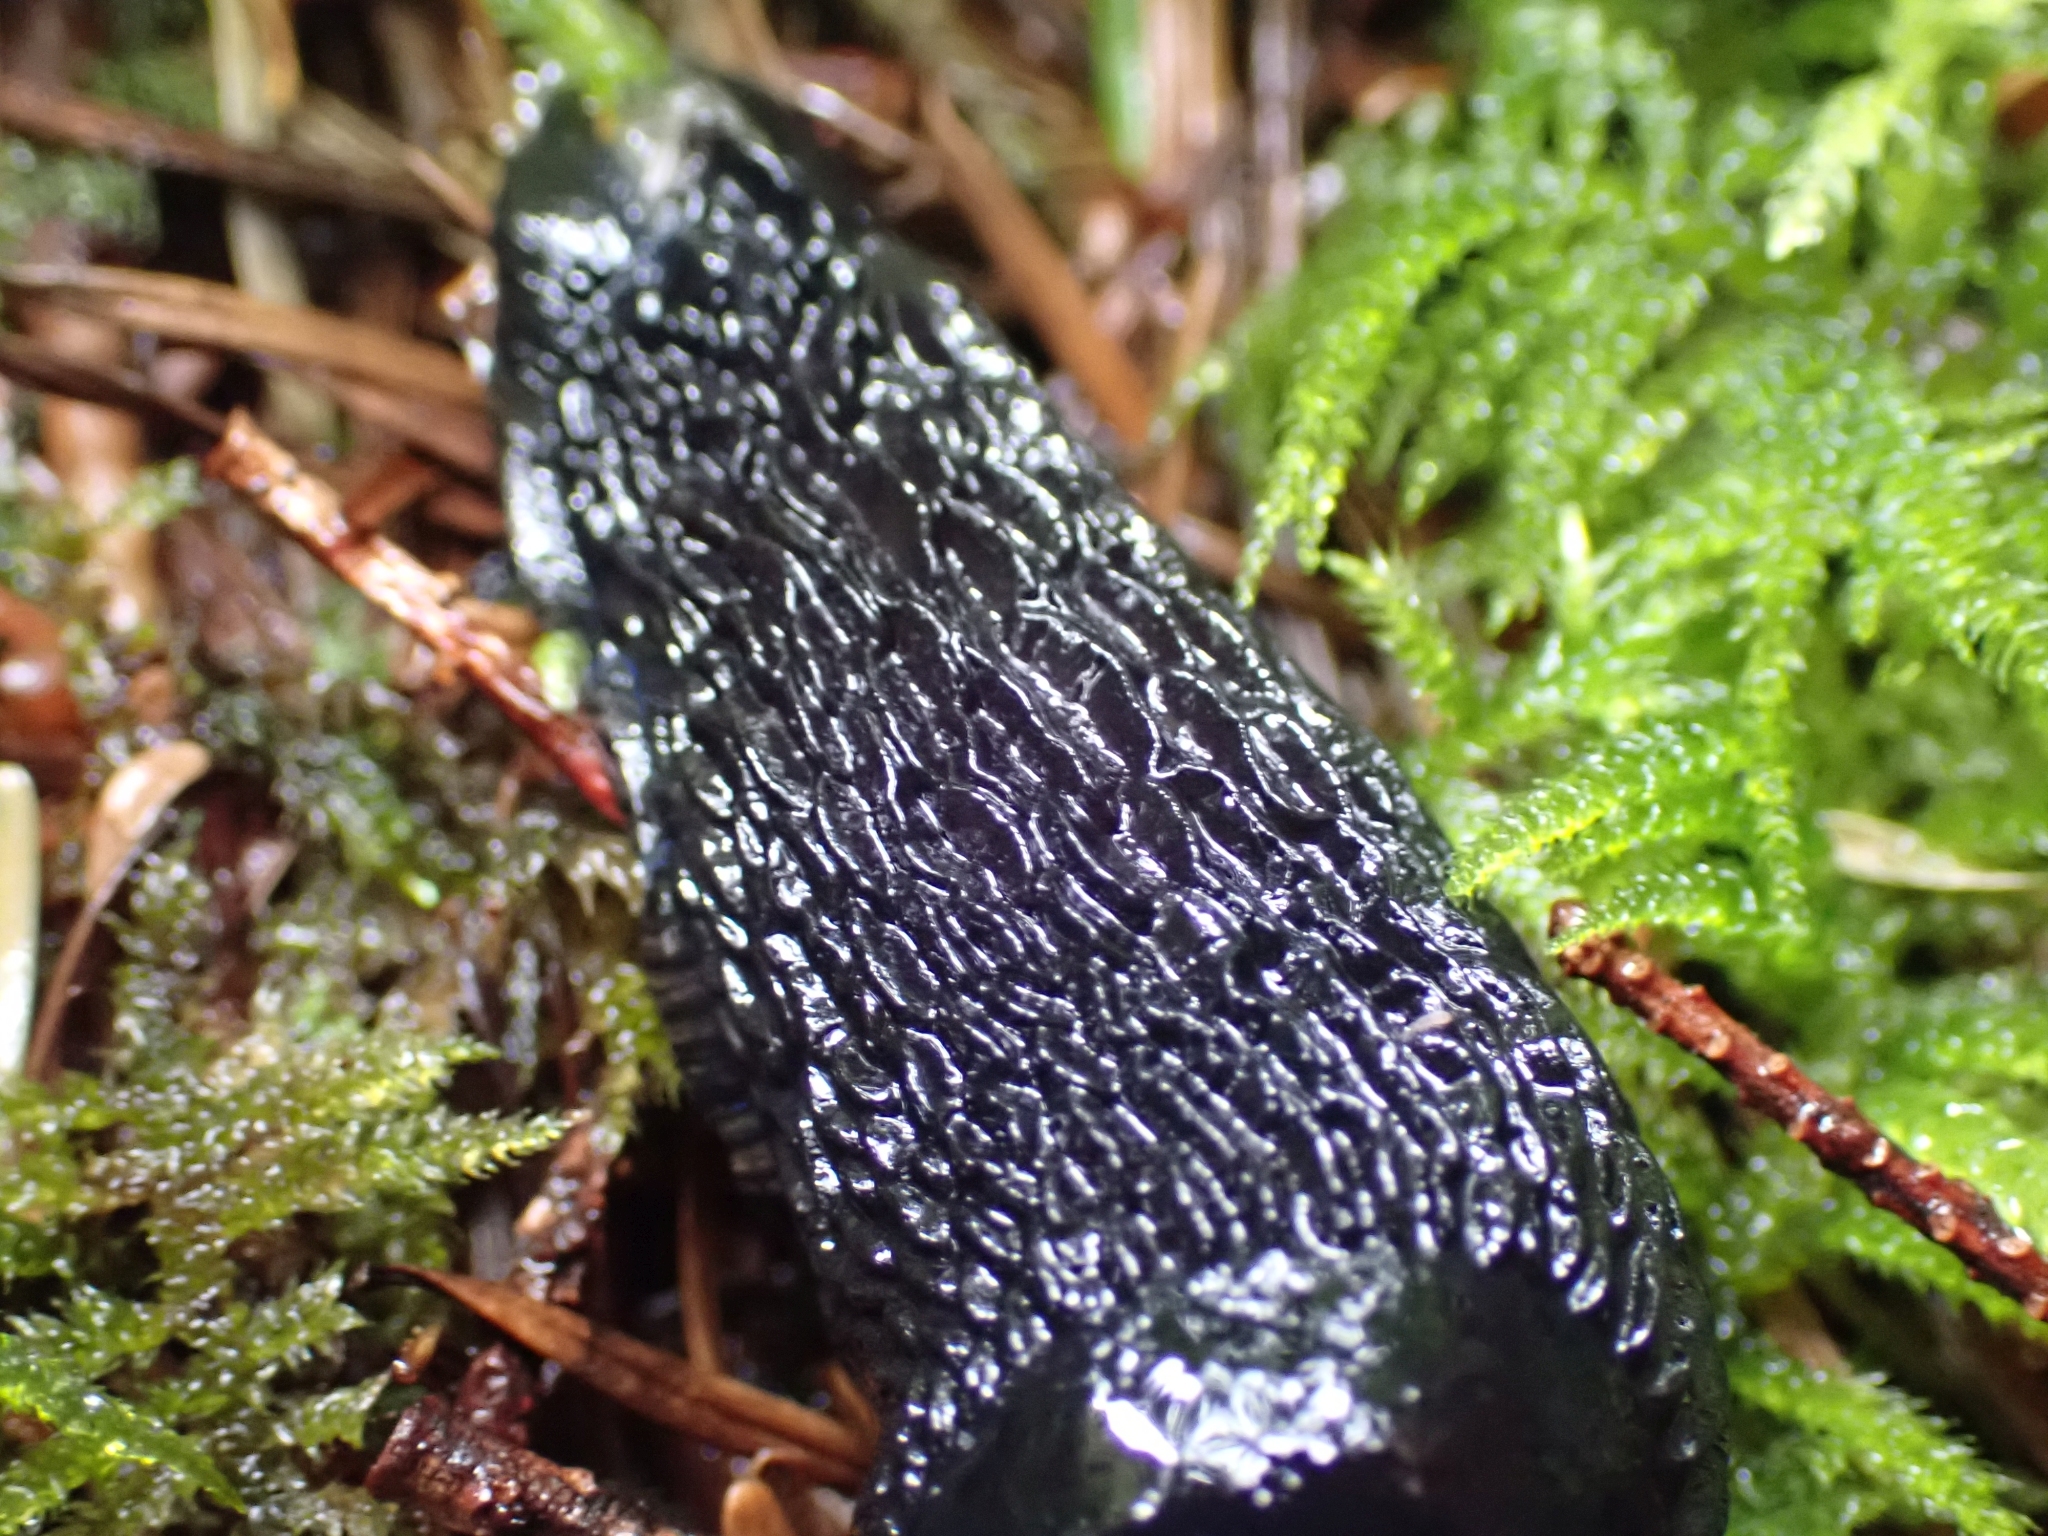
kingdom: Animalia
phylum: Mollusca
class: Gastropoda
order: Stylommatophora
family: Arionidae
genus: Arion
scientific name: Arion
